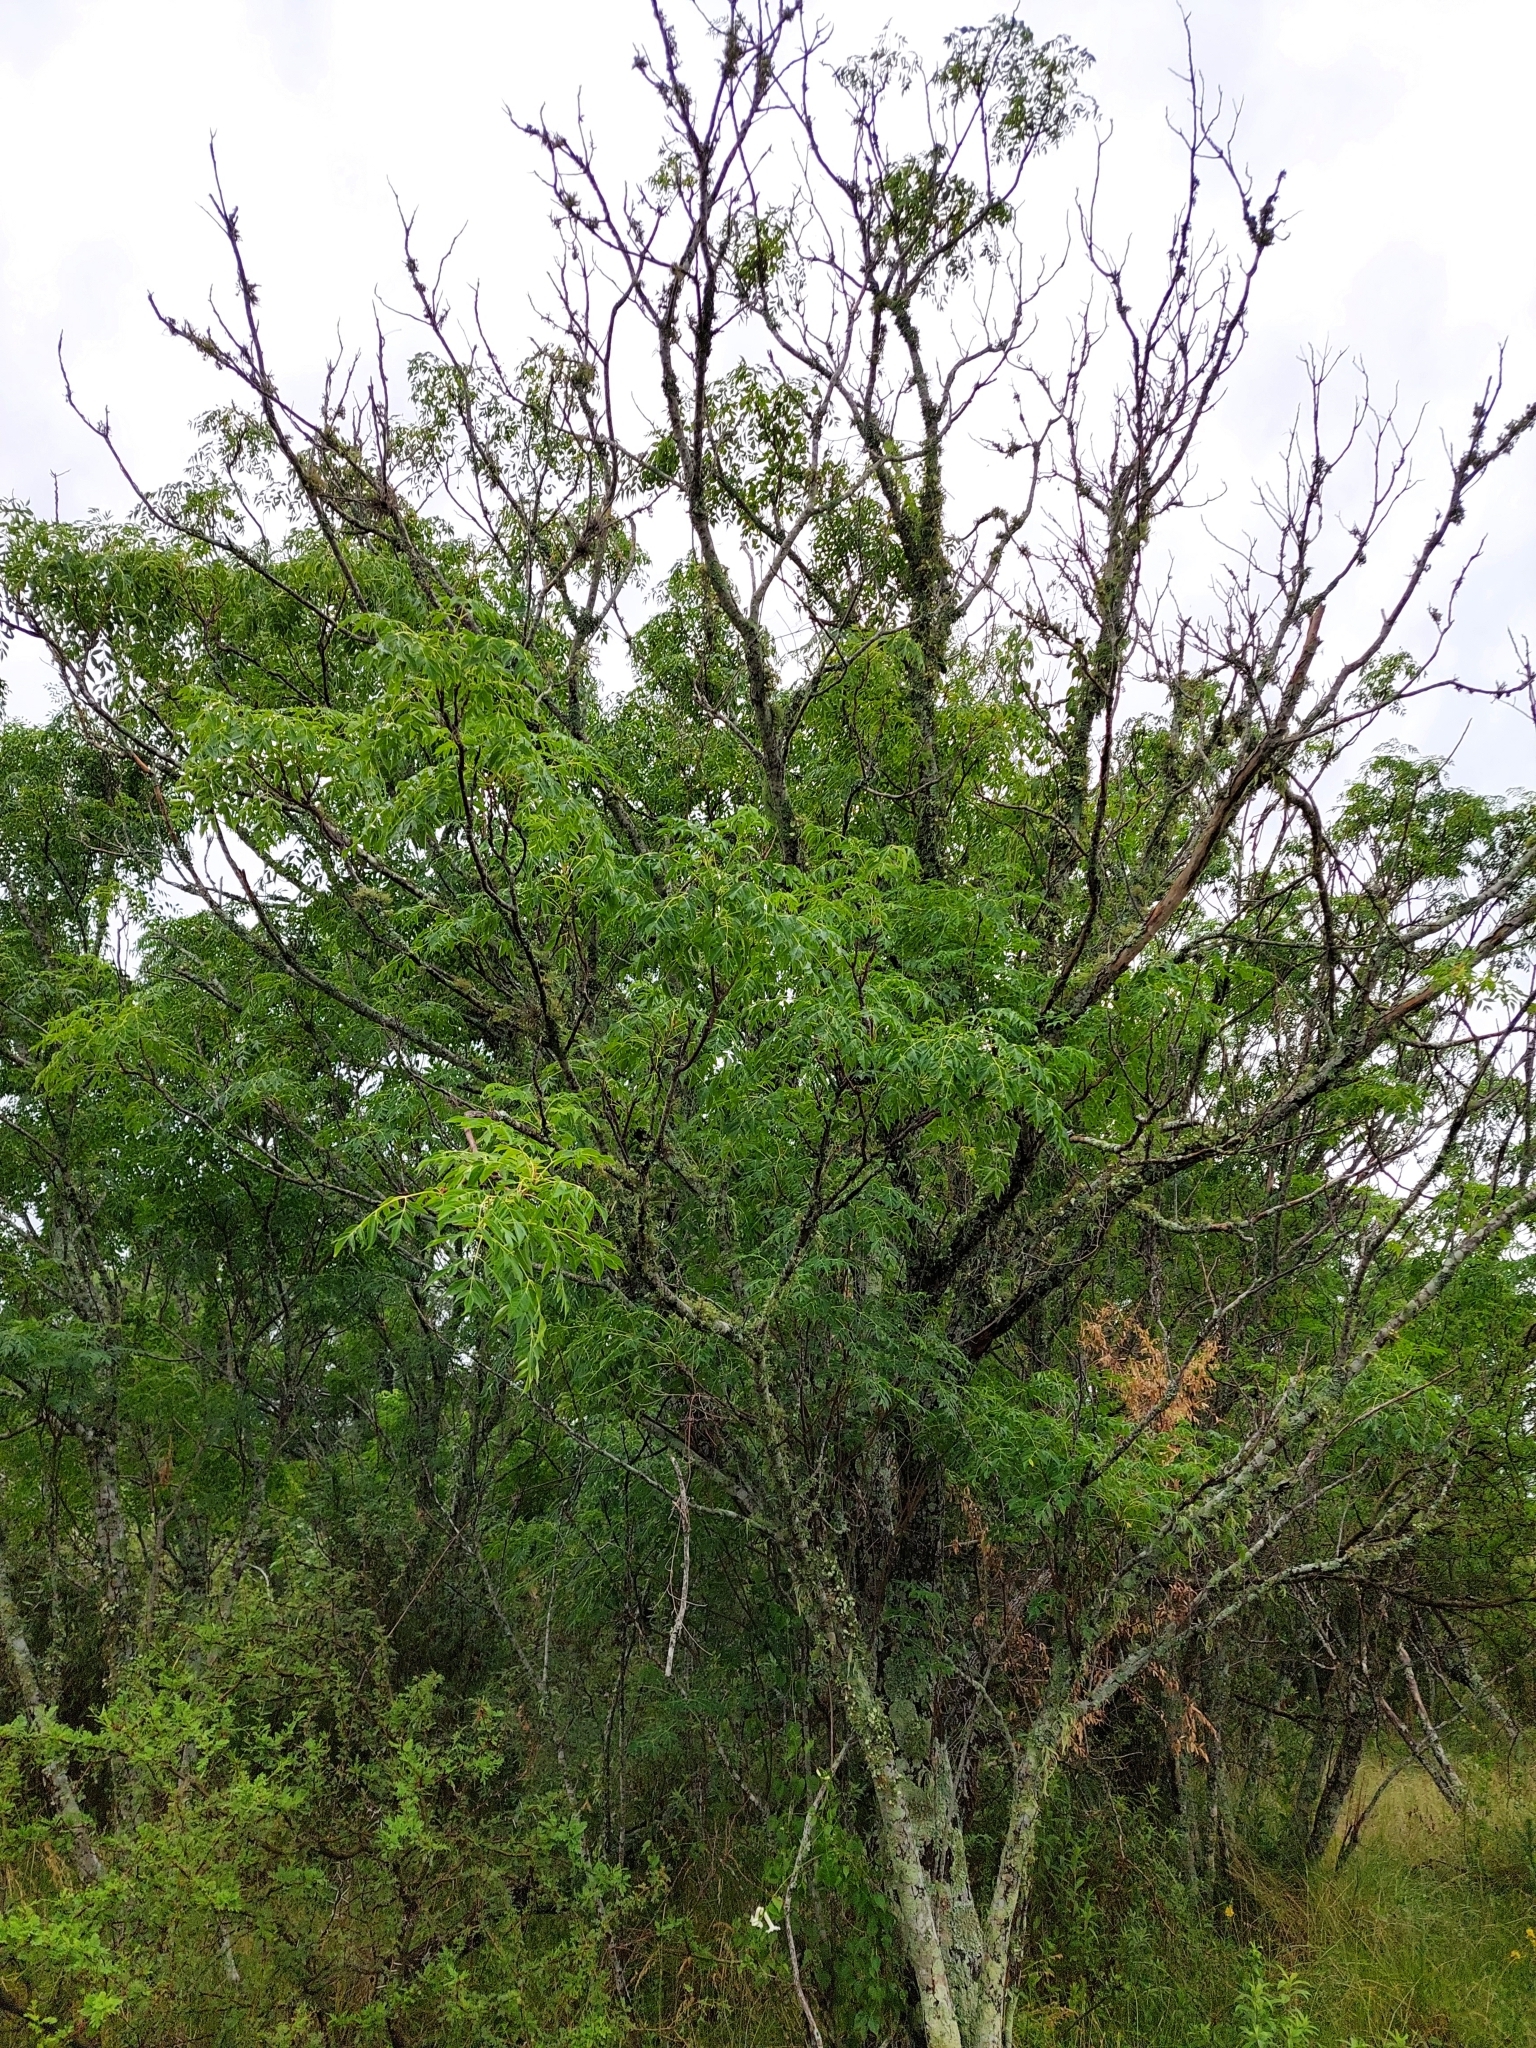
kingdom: Plantae
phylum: Tracheophyta
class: Magnoliopsida
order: Sapindales
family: Meliaceae
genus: Melia
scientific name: Melia azedarach
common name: Chinaberrytree
